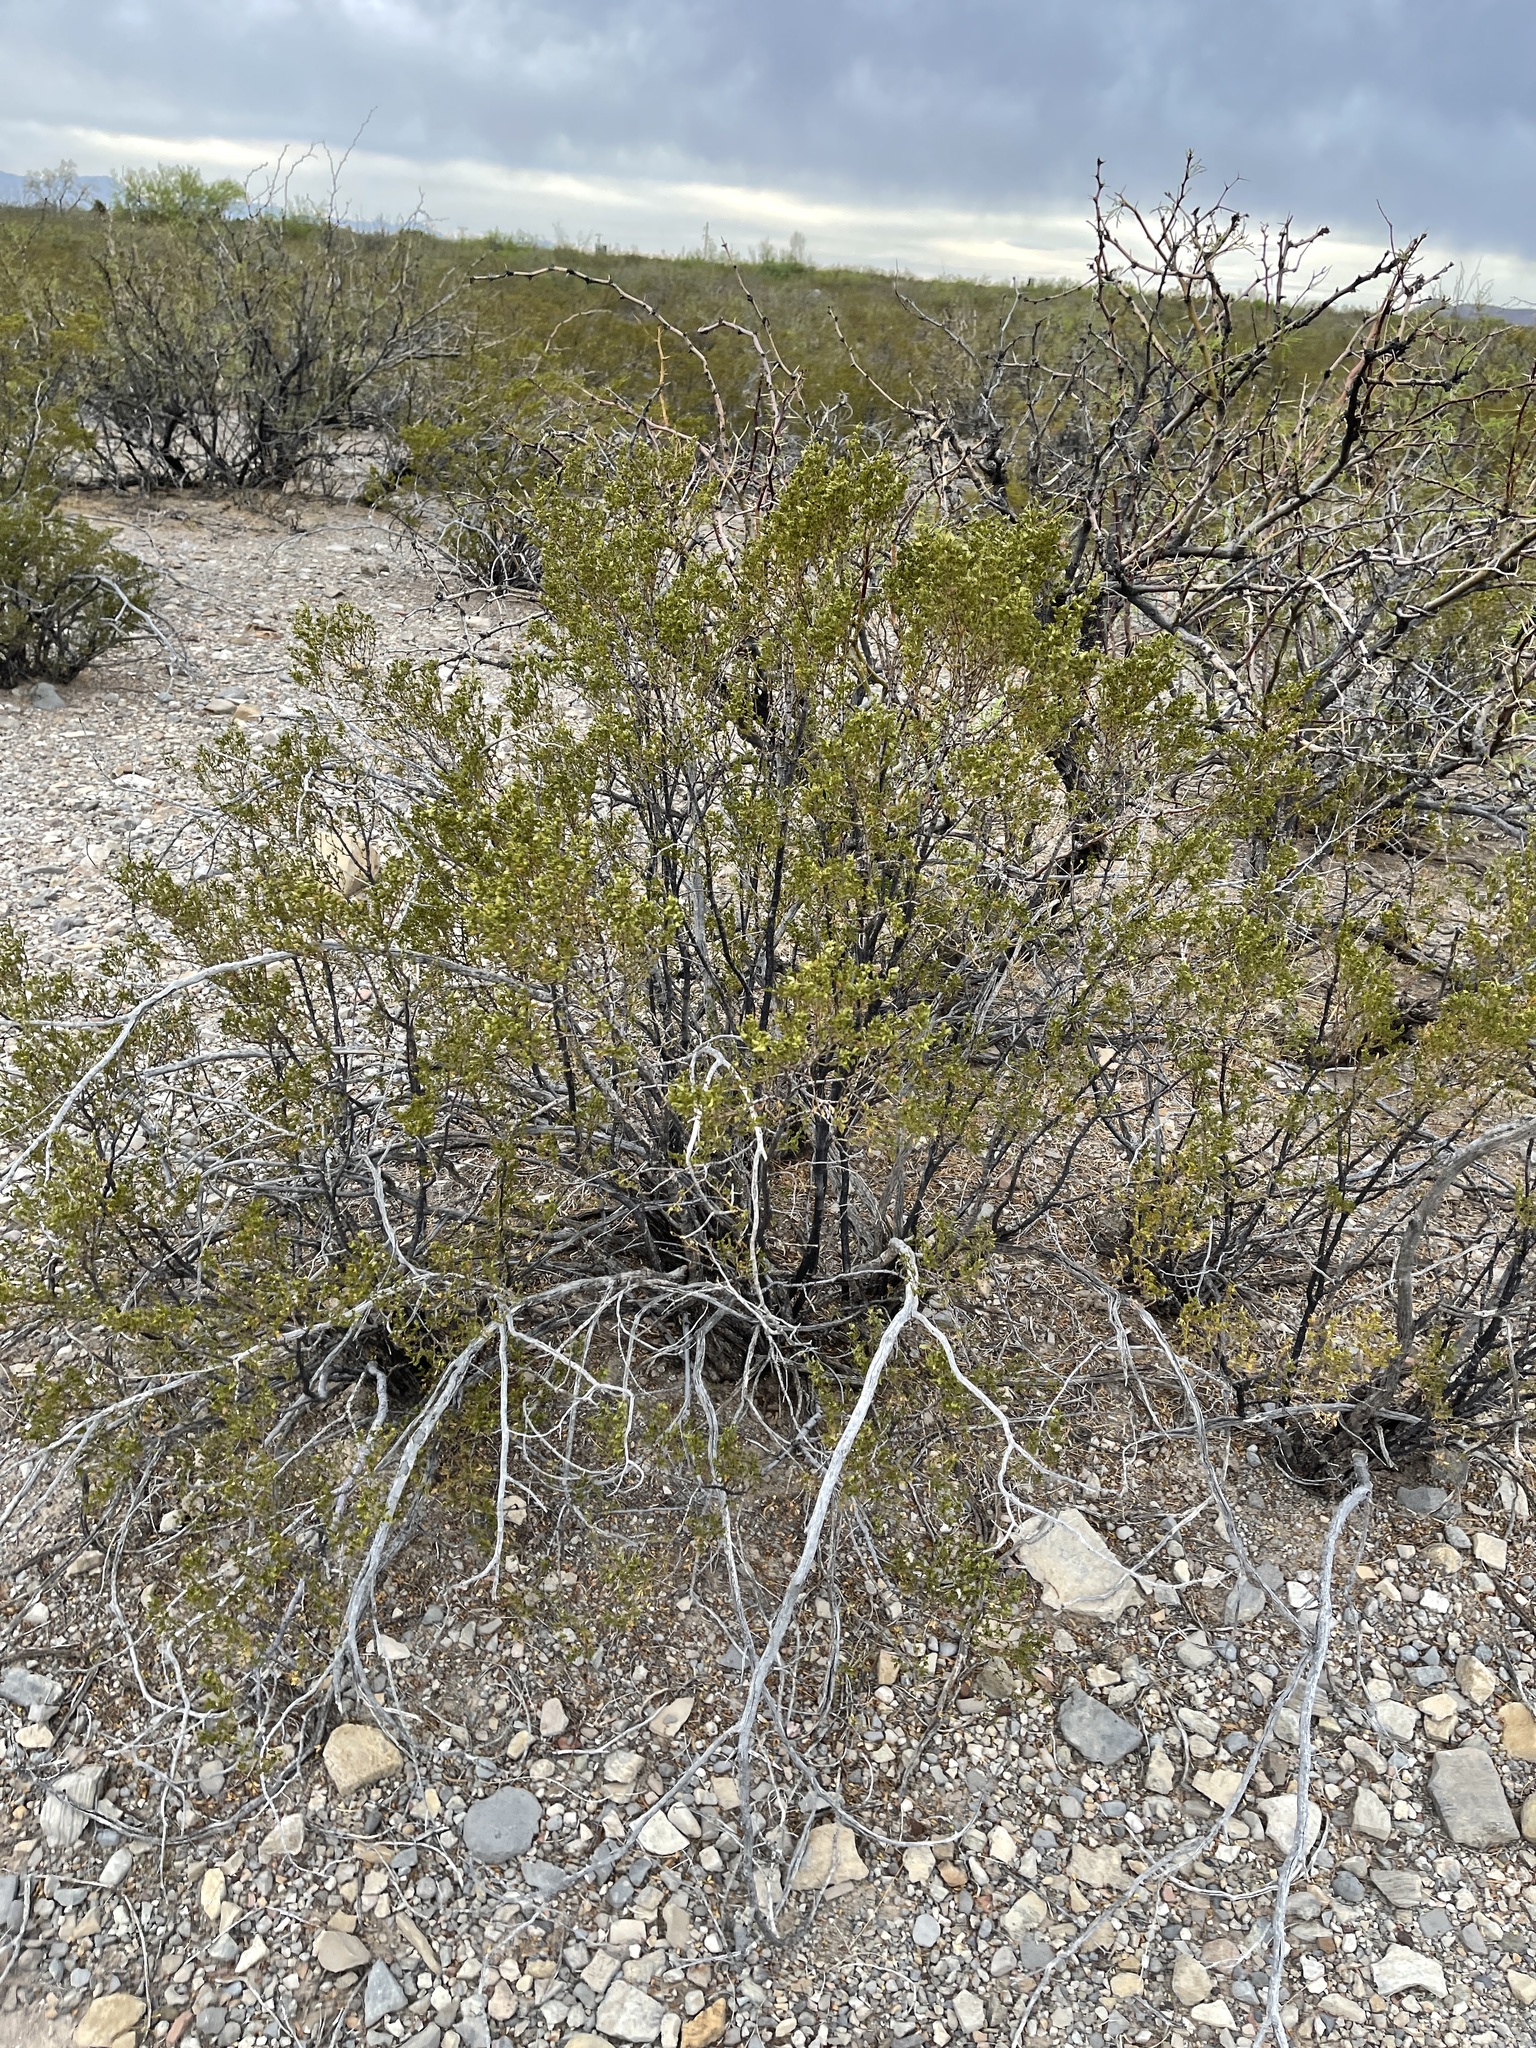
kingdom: Plantae
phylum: Tracheophyta
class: Magnoliopsida
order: Zygophyllales
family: Zygophyllaceae
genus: Larrea
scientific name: Larrea tridentata
